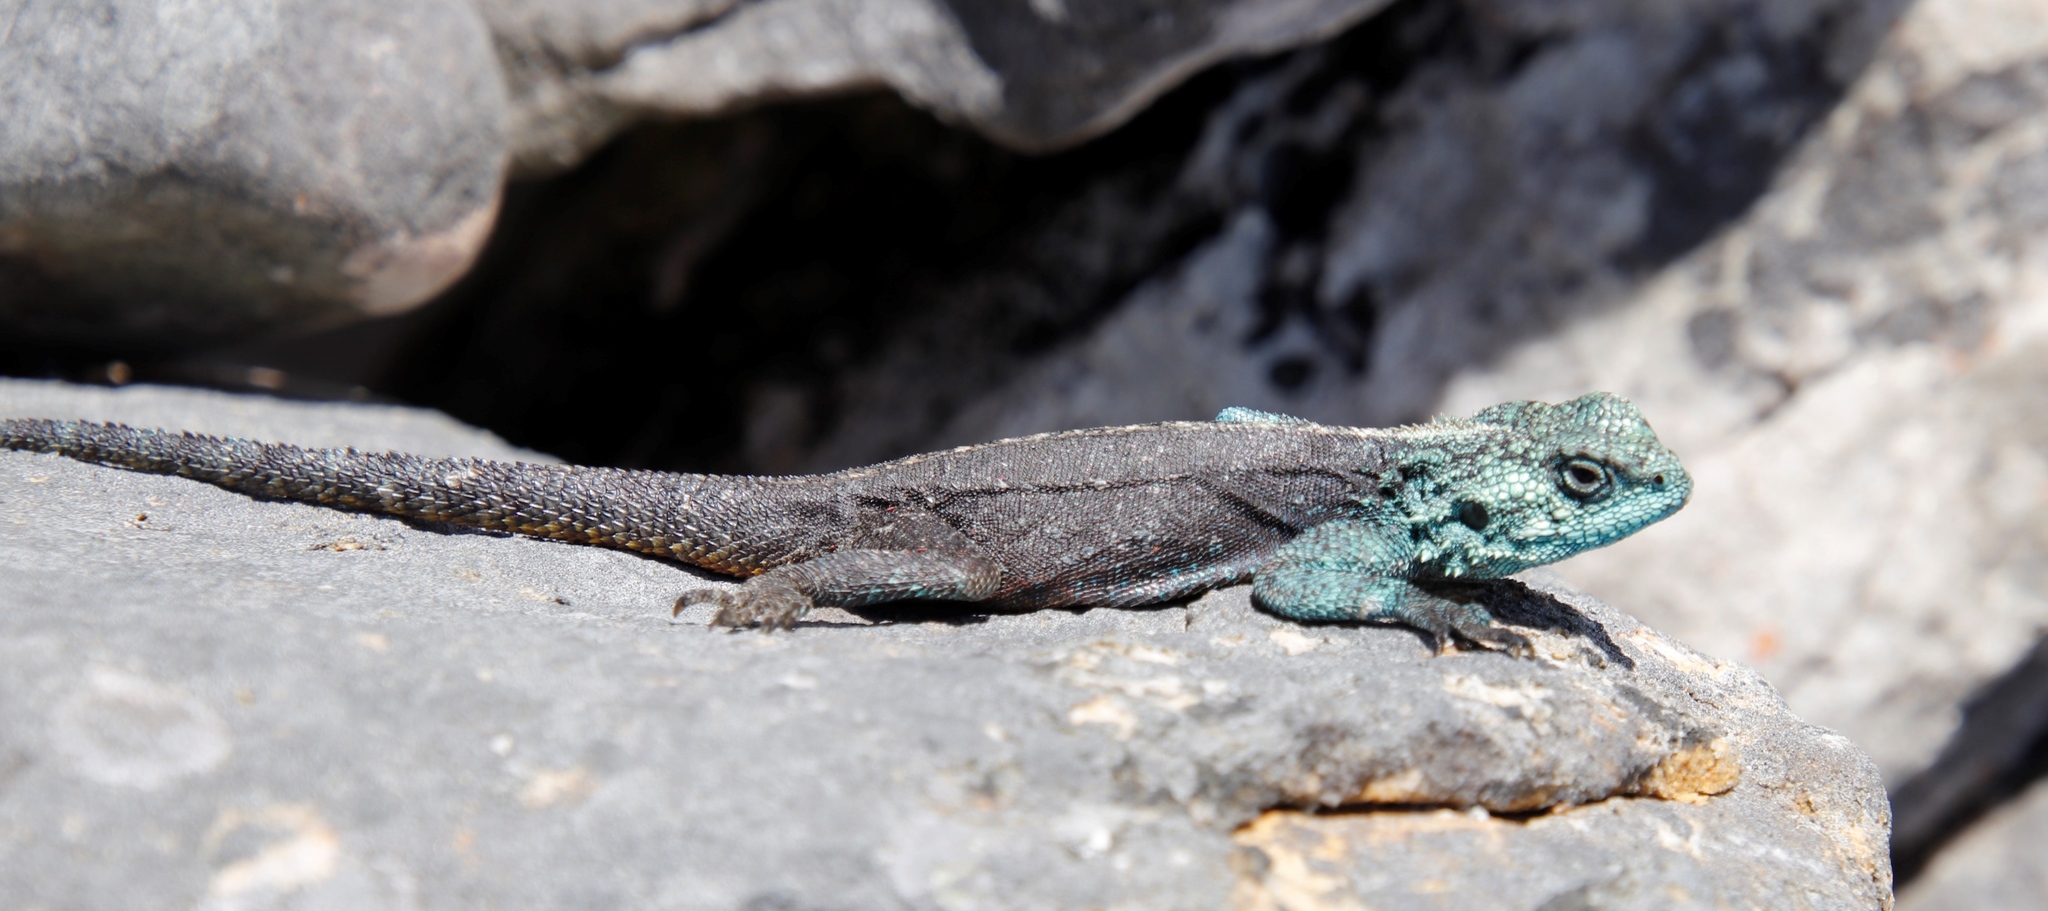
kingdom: Animalia
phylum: Chordata
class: Squamata
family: Agamidae
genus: Agama
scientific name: Agama atra
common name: Southern african rock agama
